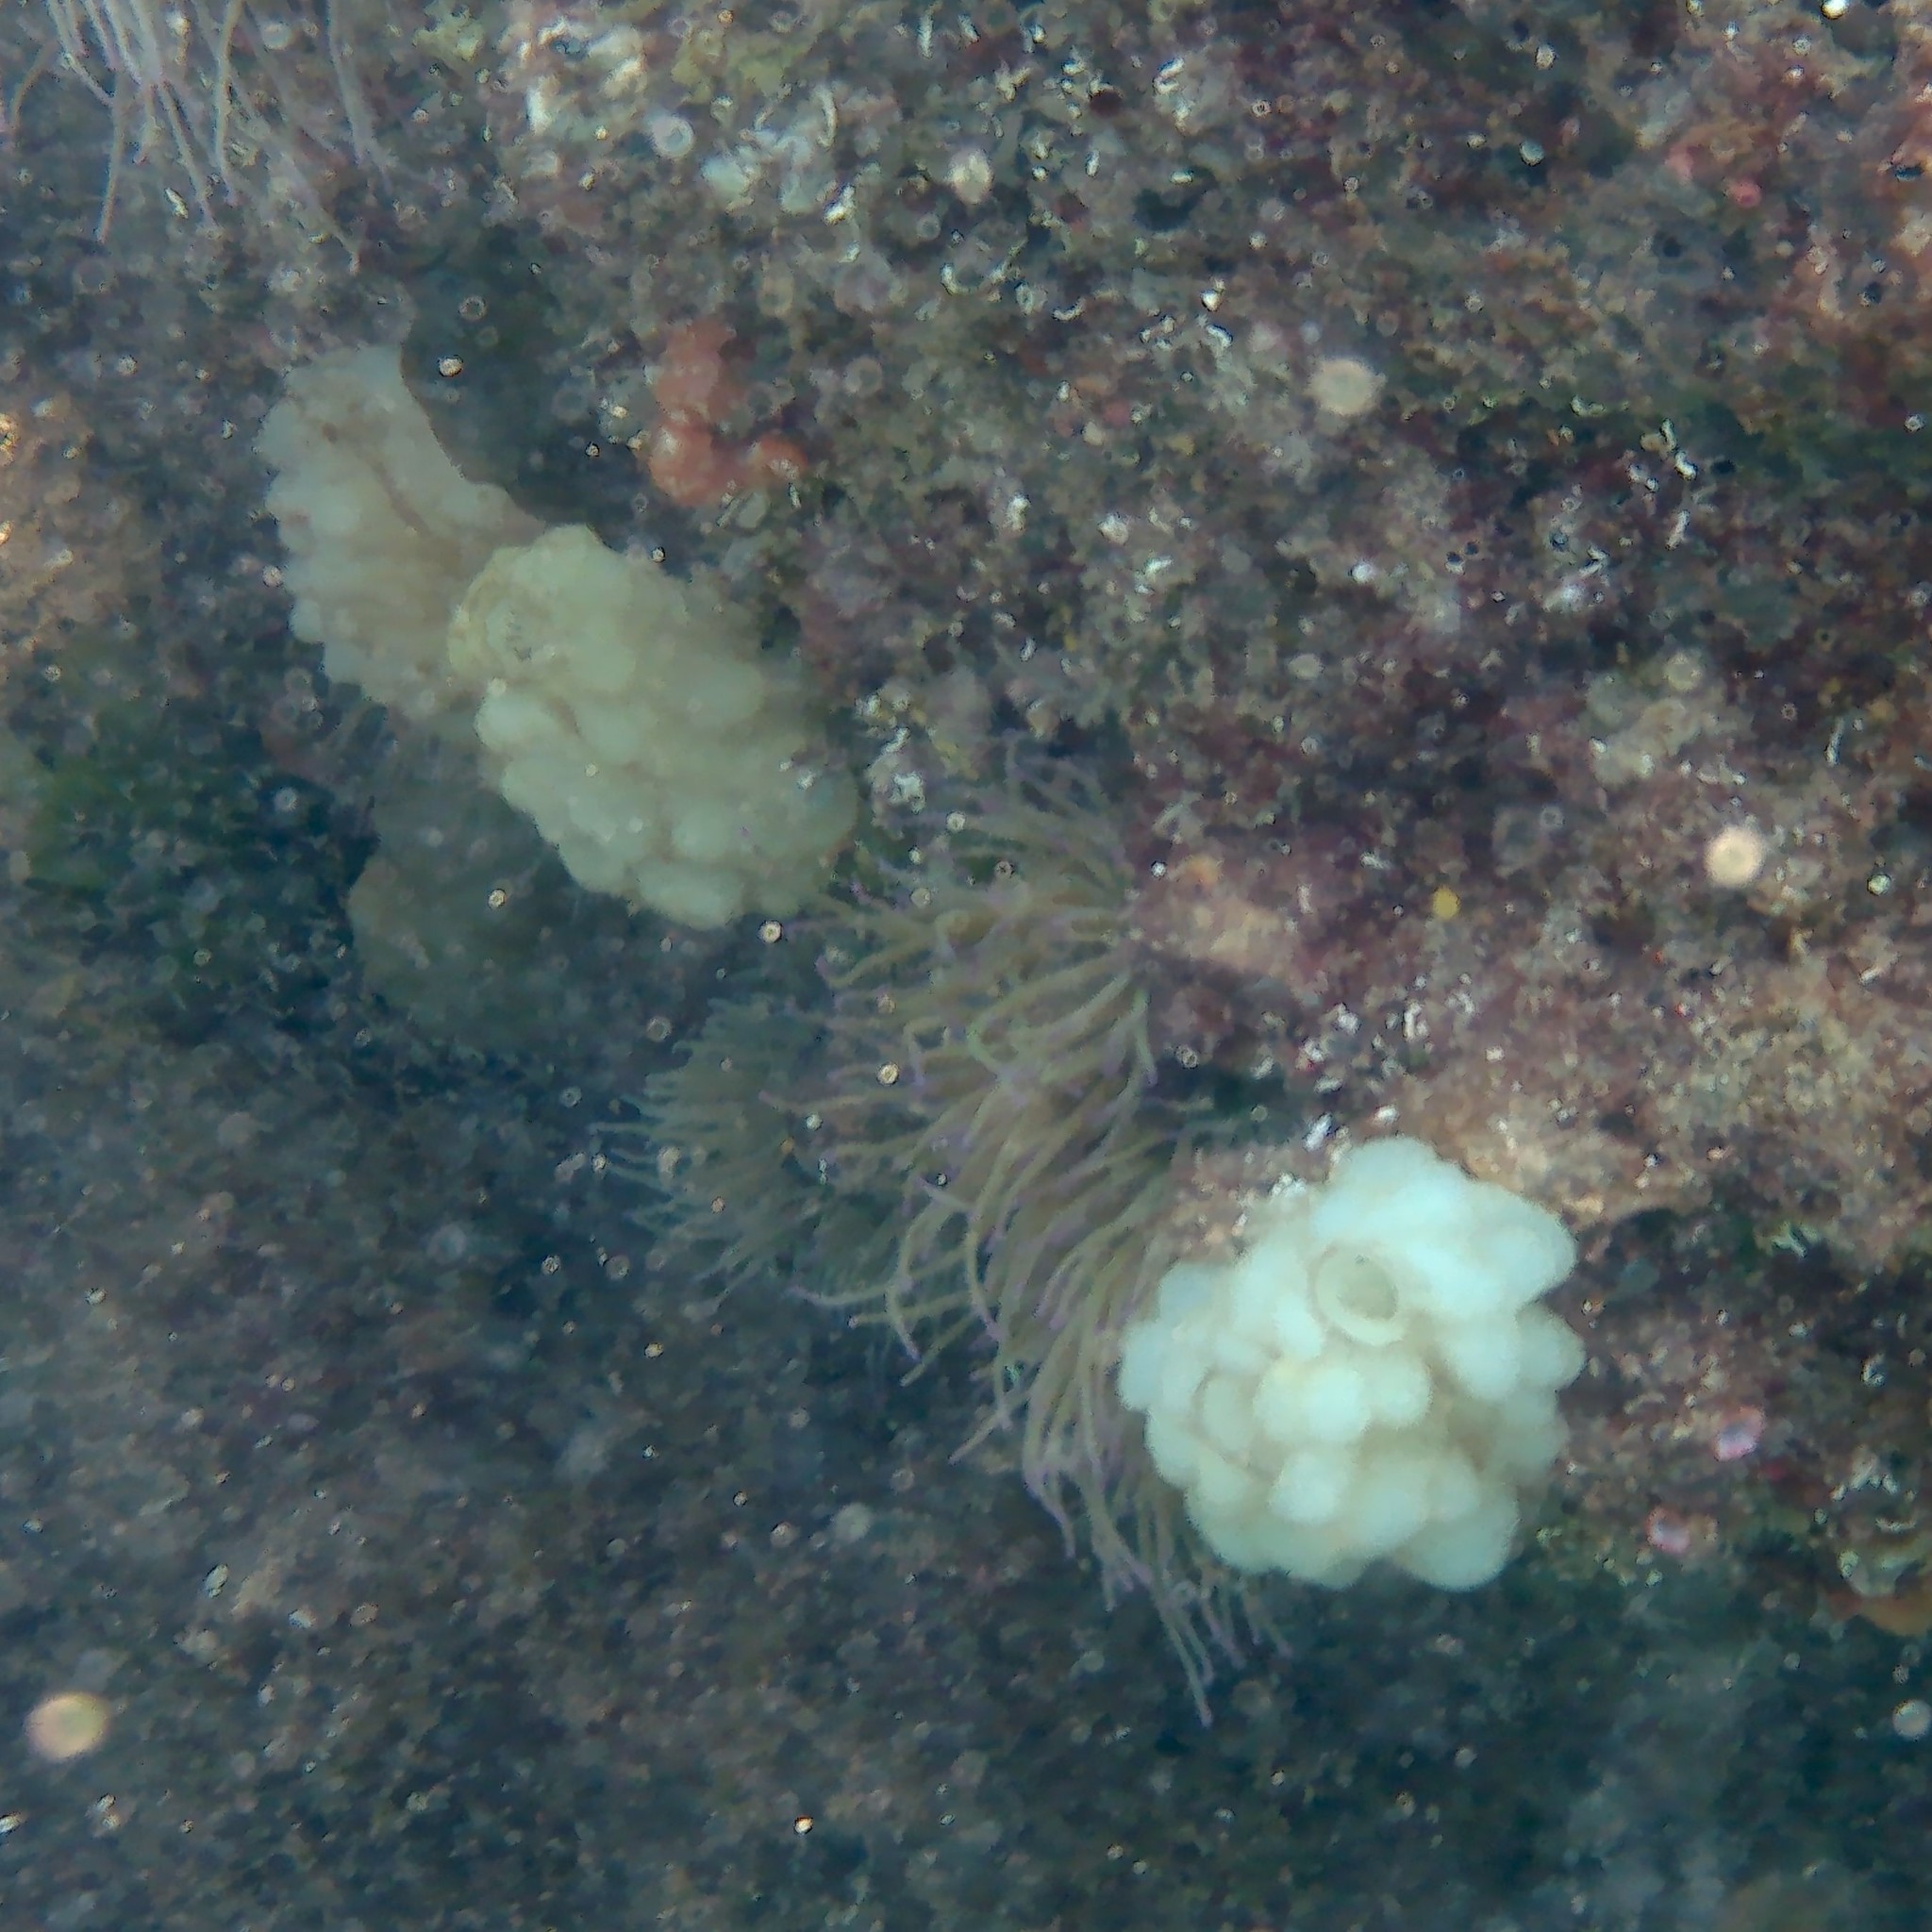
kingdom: Animalia
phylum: Chordata
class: Ascidiacea
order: Phlebobranchia
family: Ascidiidae
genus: Phallusia
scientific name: Phallusia mammillata
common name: Neptune's heart sea squirt
